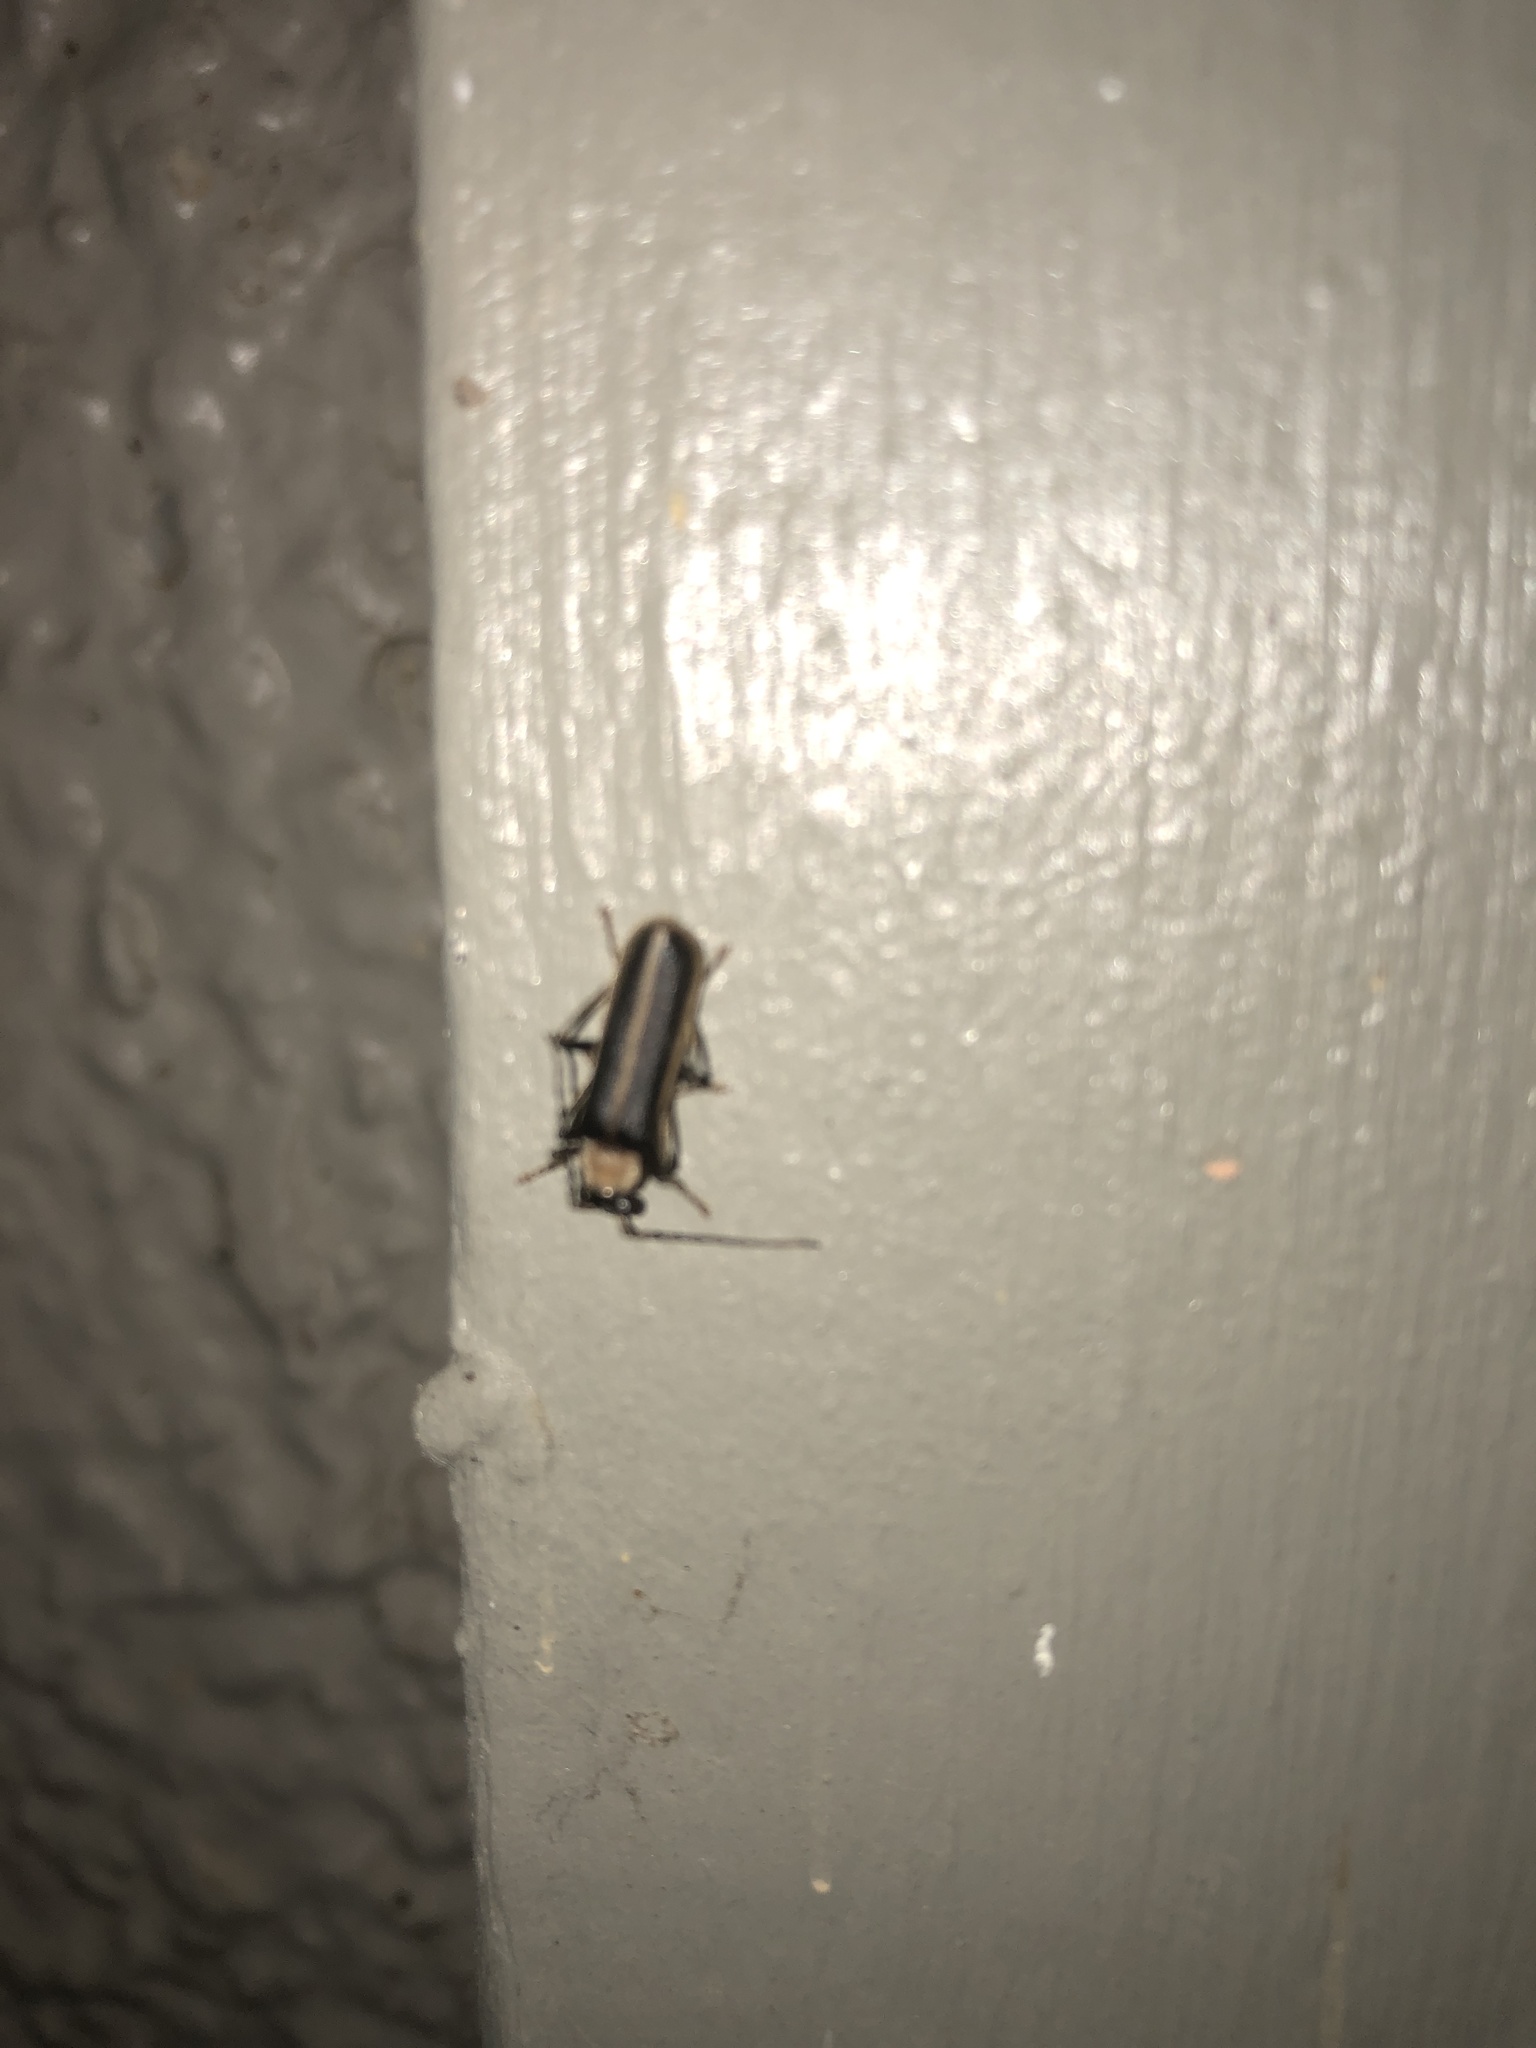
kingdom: Animalia
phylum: Arthropoda
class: Insecta
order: Coleoptera
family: Cantharidae
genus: Podabrus
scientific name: Podabrus flavicollis
